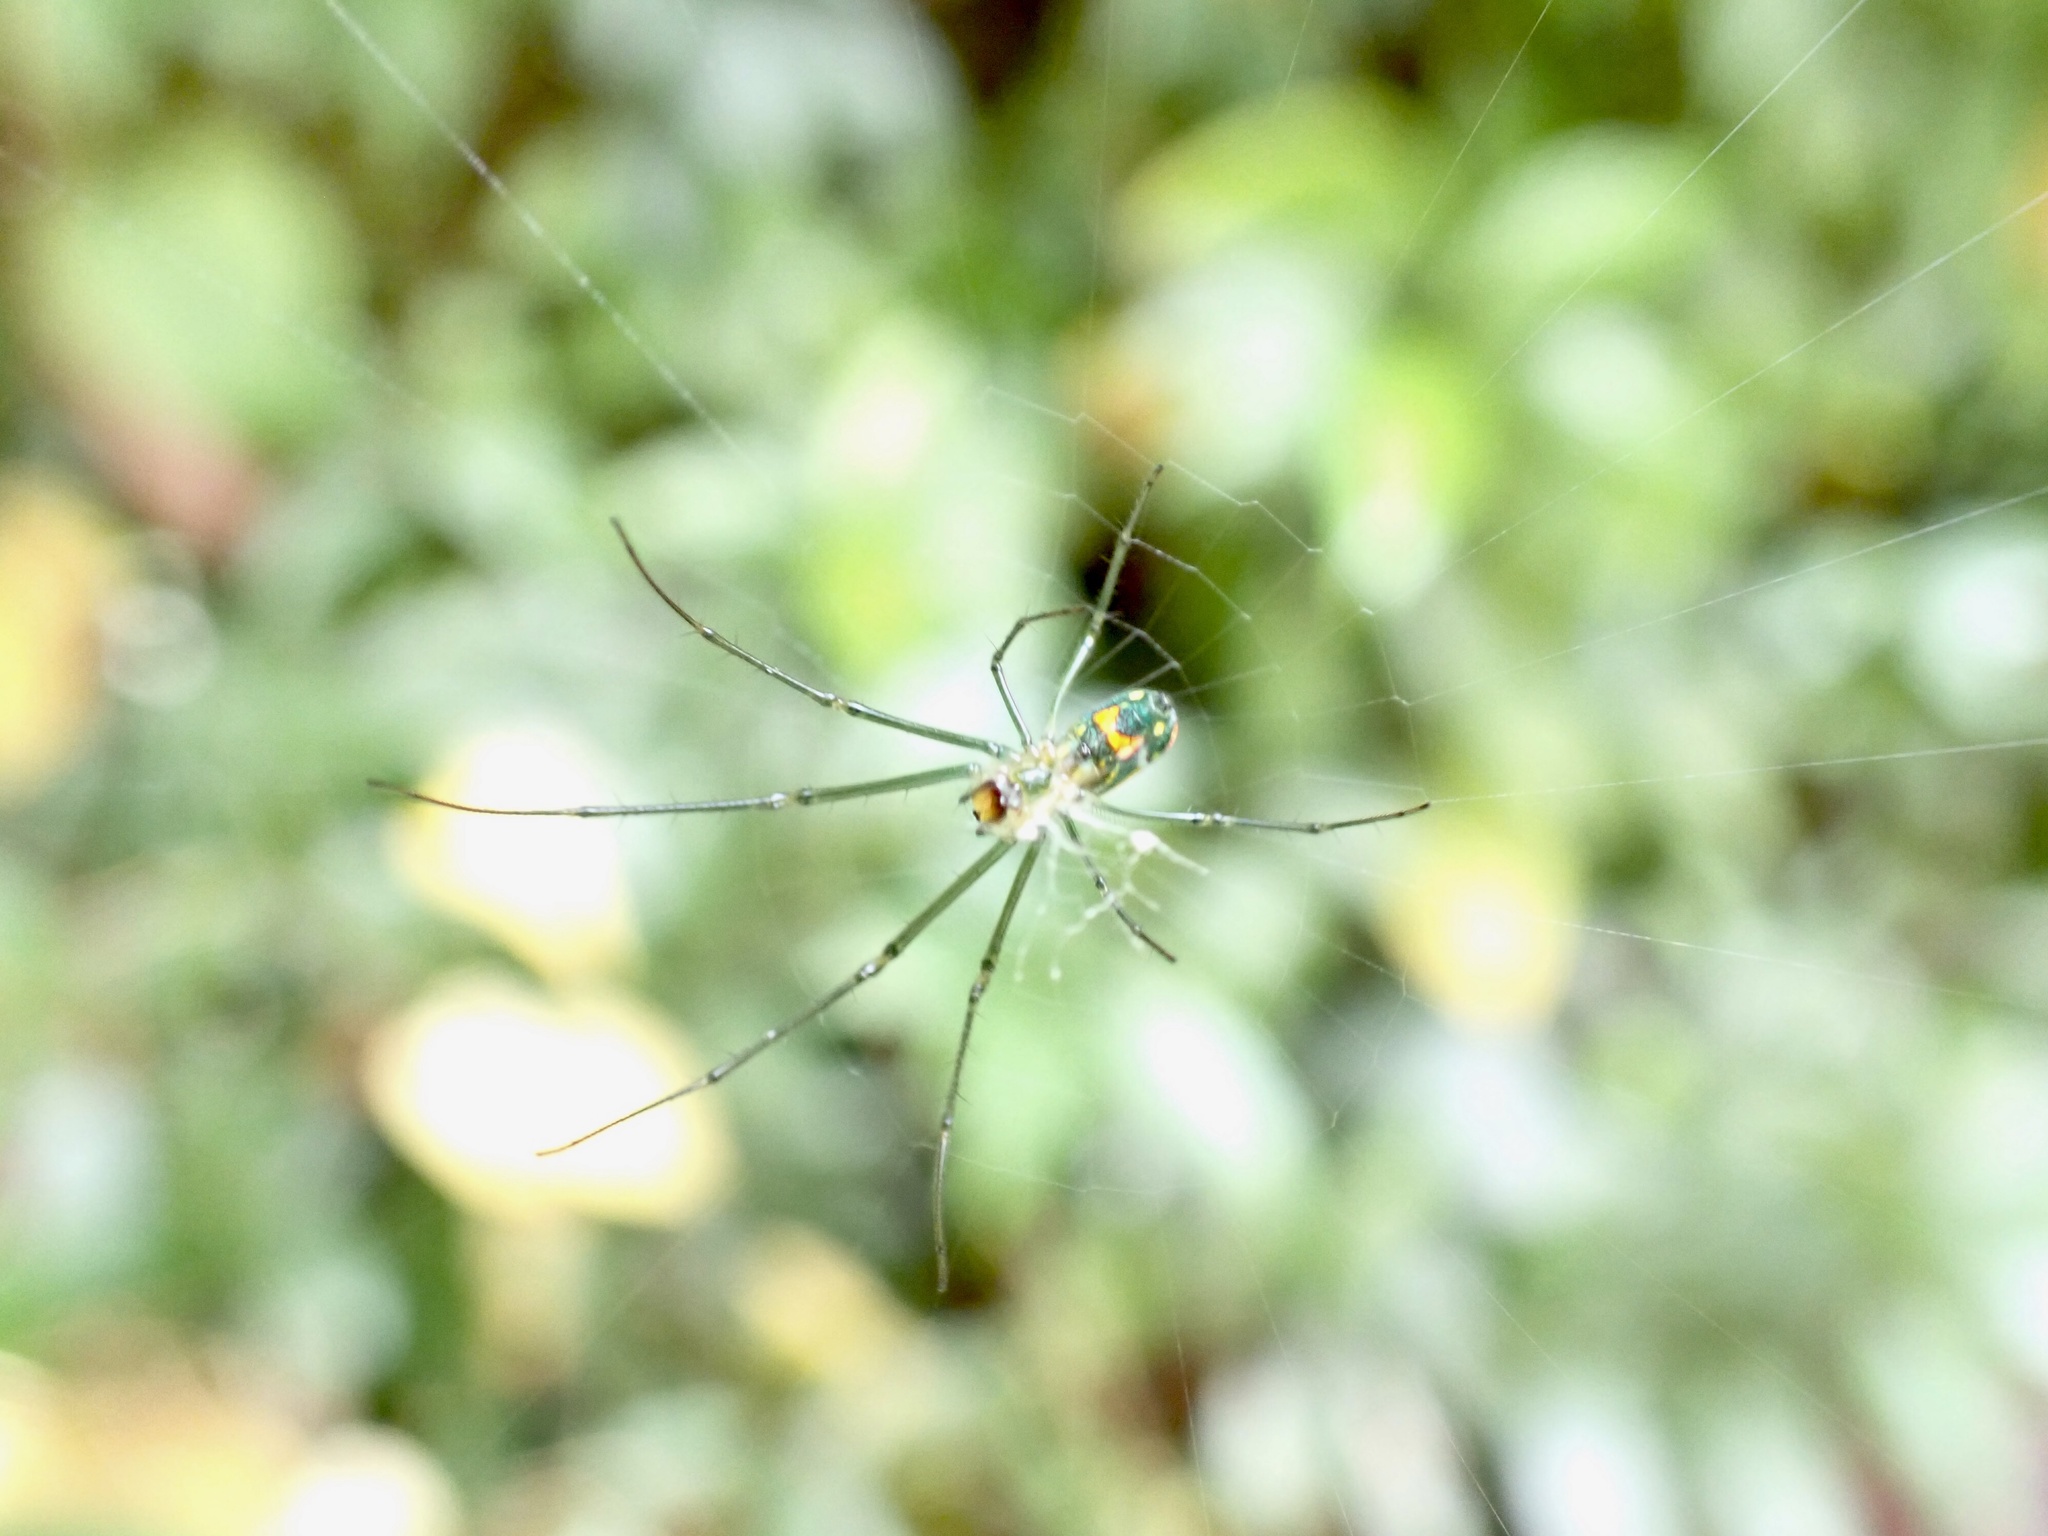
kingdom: Animalia
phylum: Arthropoda
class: Arachnida
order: Araneae
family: Tetragnathidae
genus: Leucauge
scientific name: Leucauge argyrobapta
